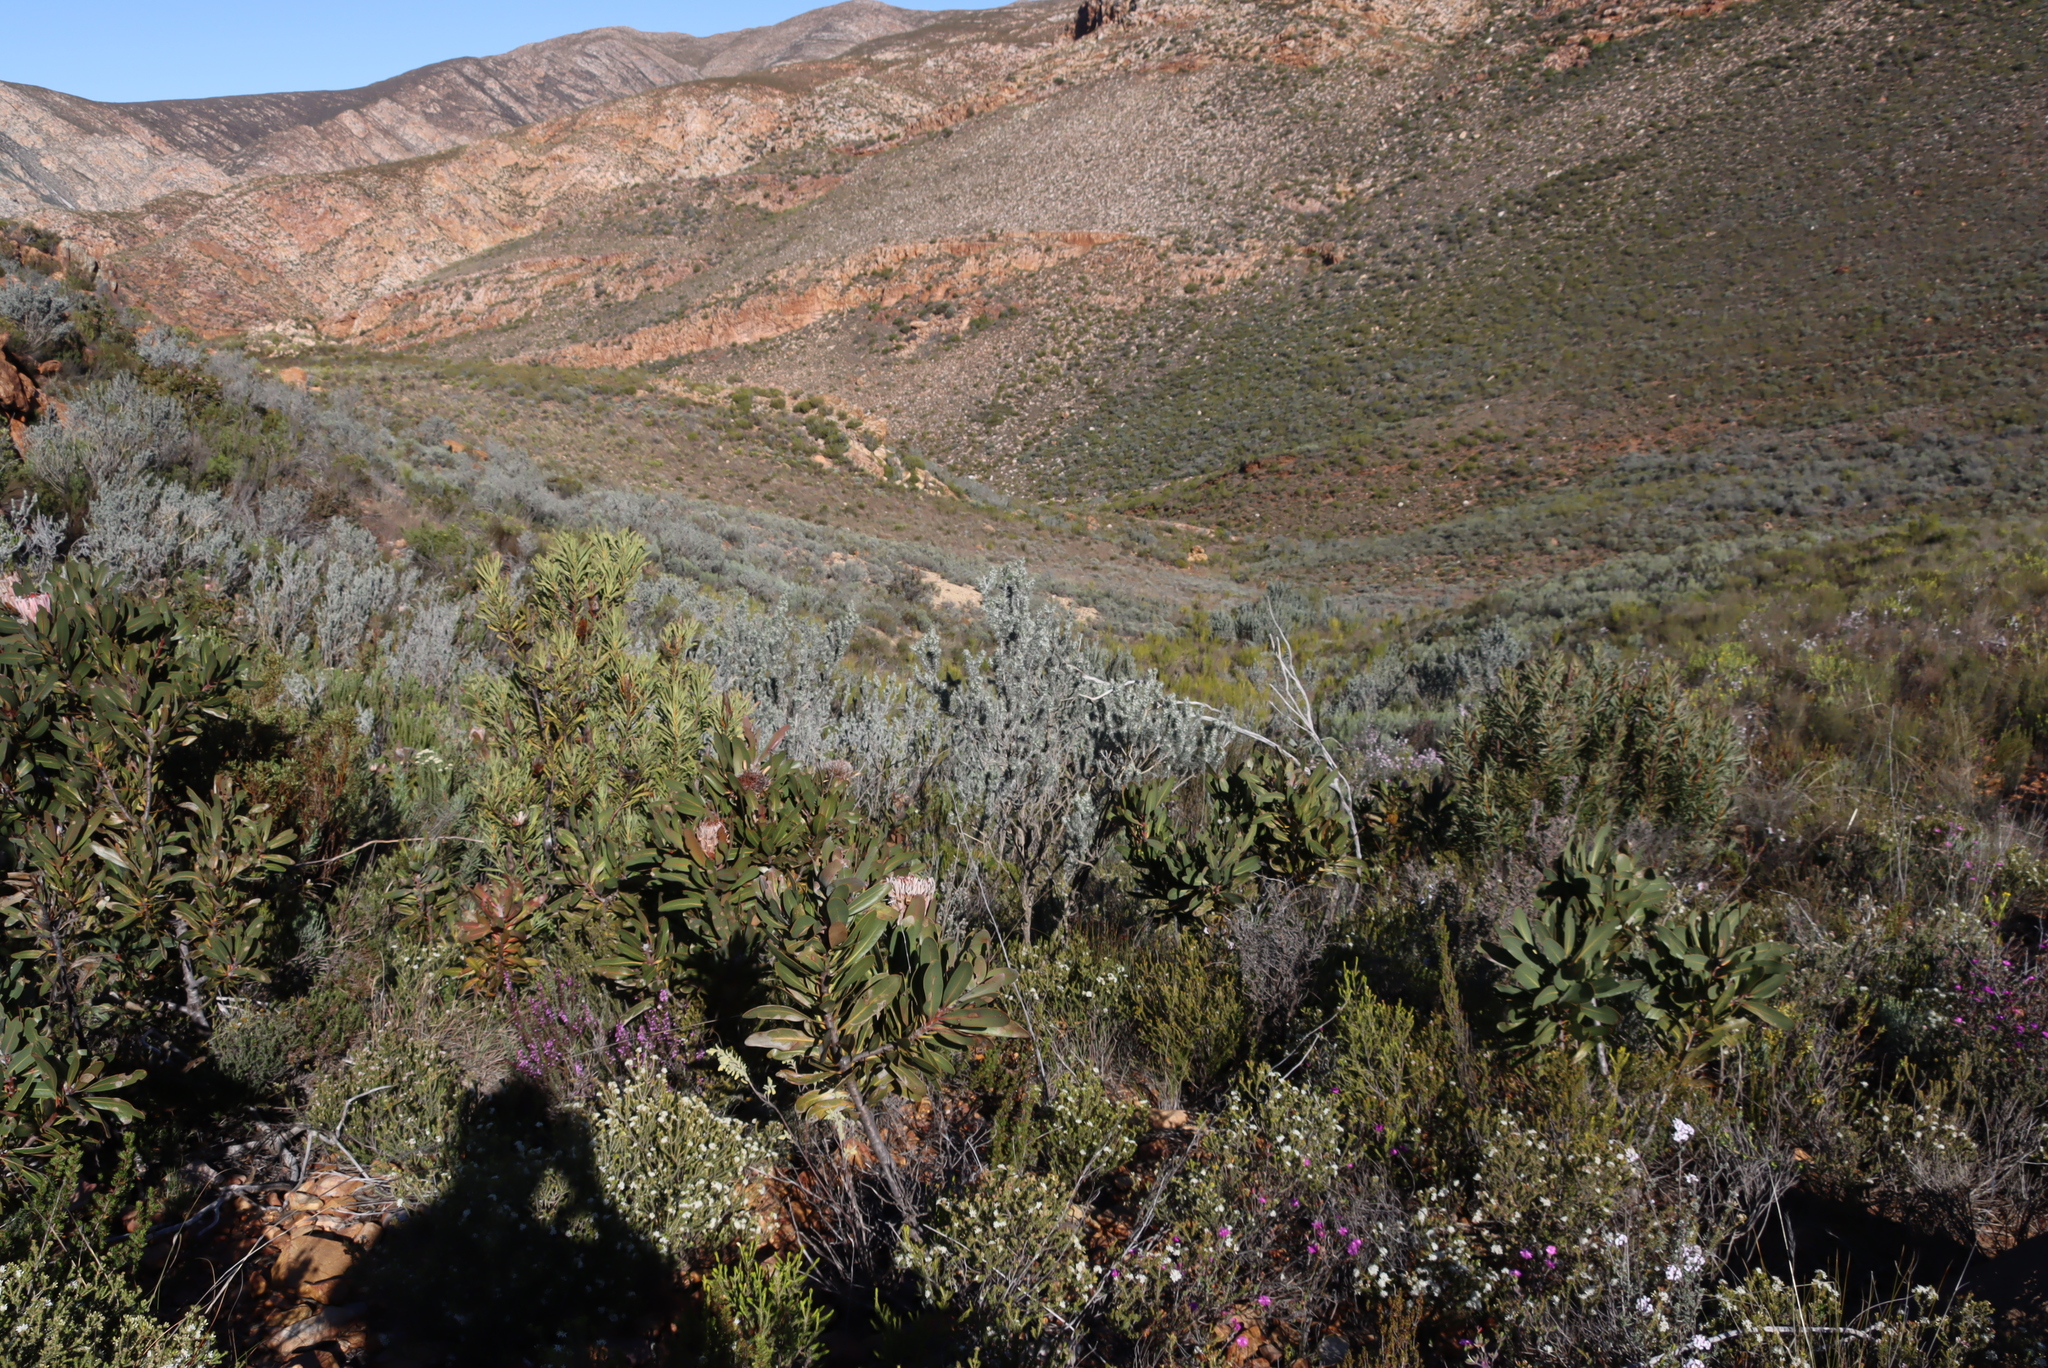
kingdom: Plantae
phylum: Tracheophyta
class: Magnoliopsida
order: Proteales
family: Proteaceae
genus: Protea
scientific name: Protea repens
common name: Sugarbush
